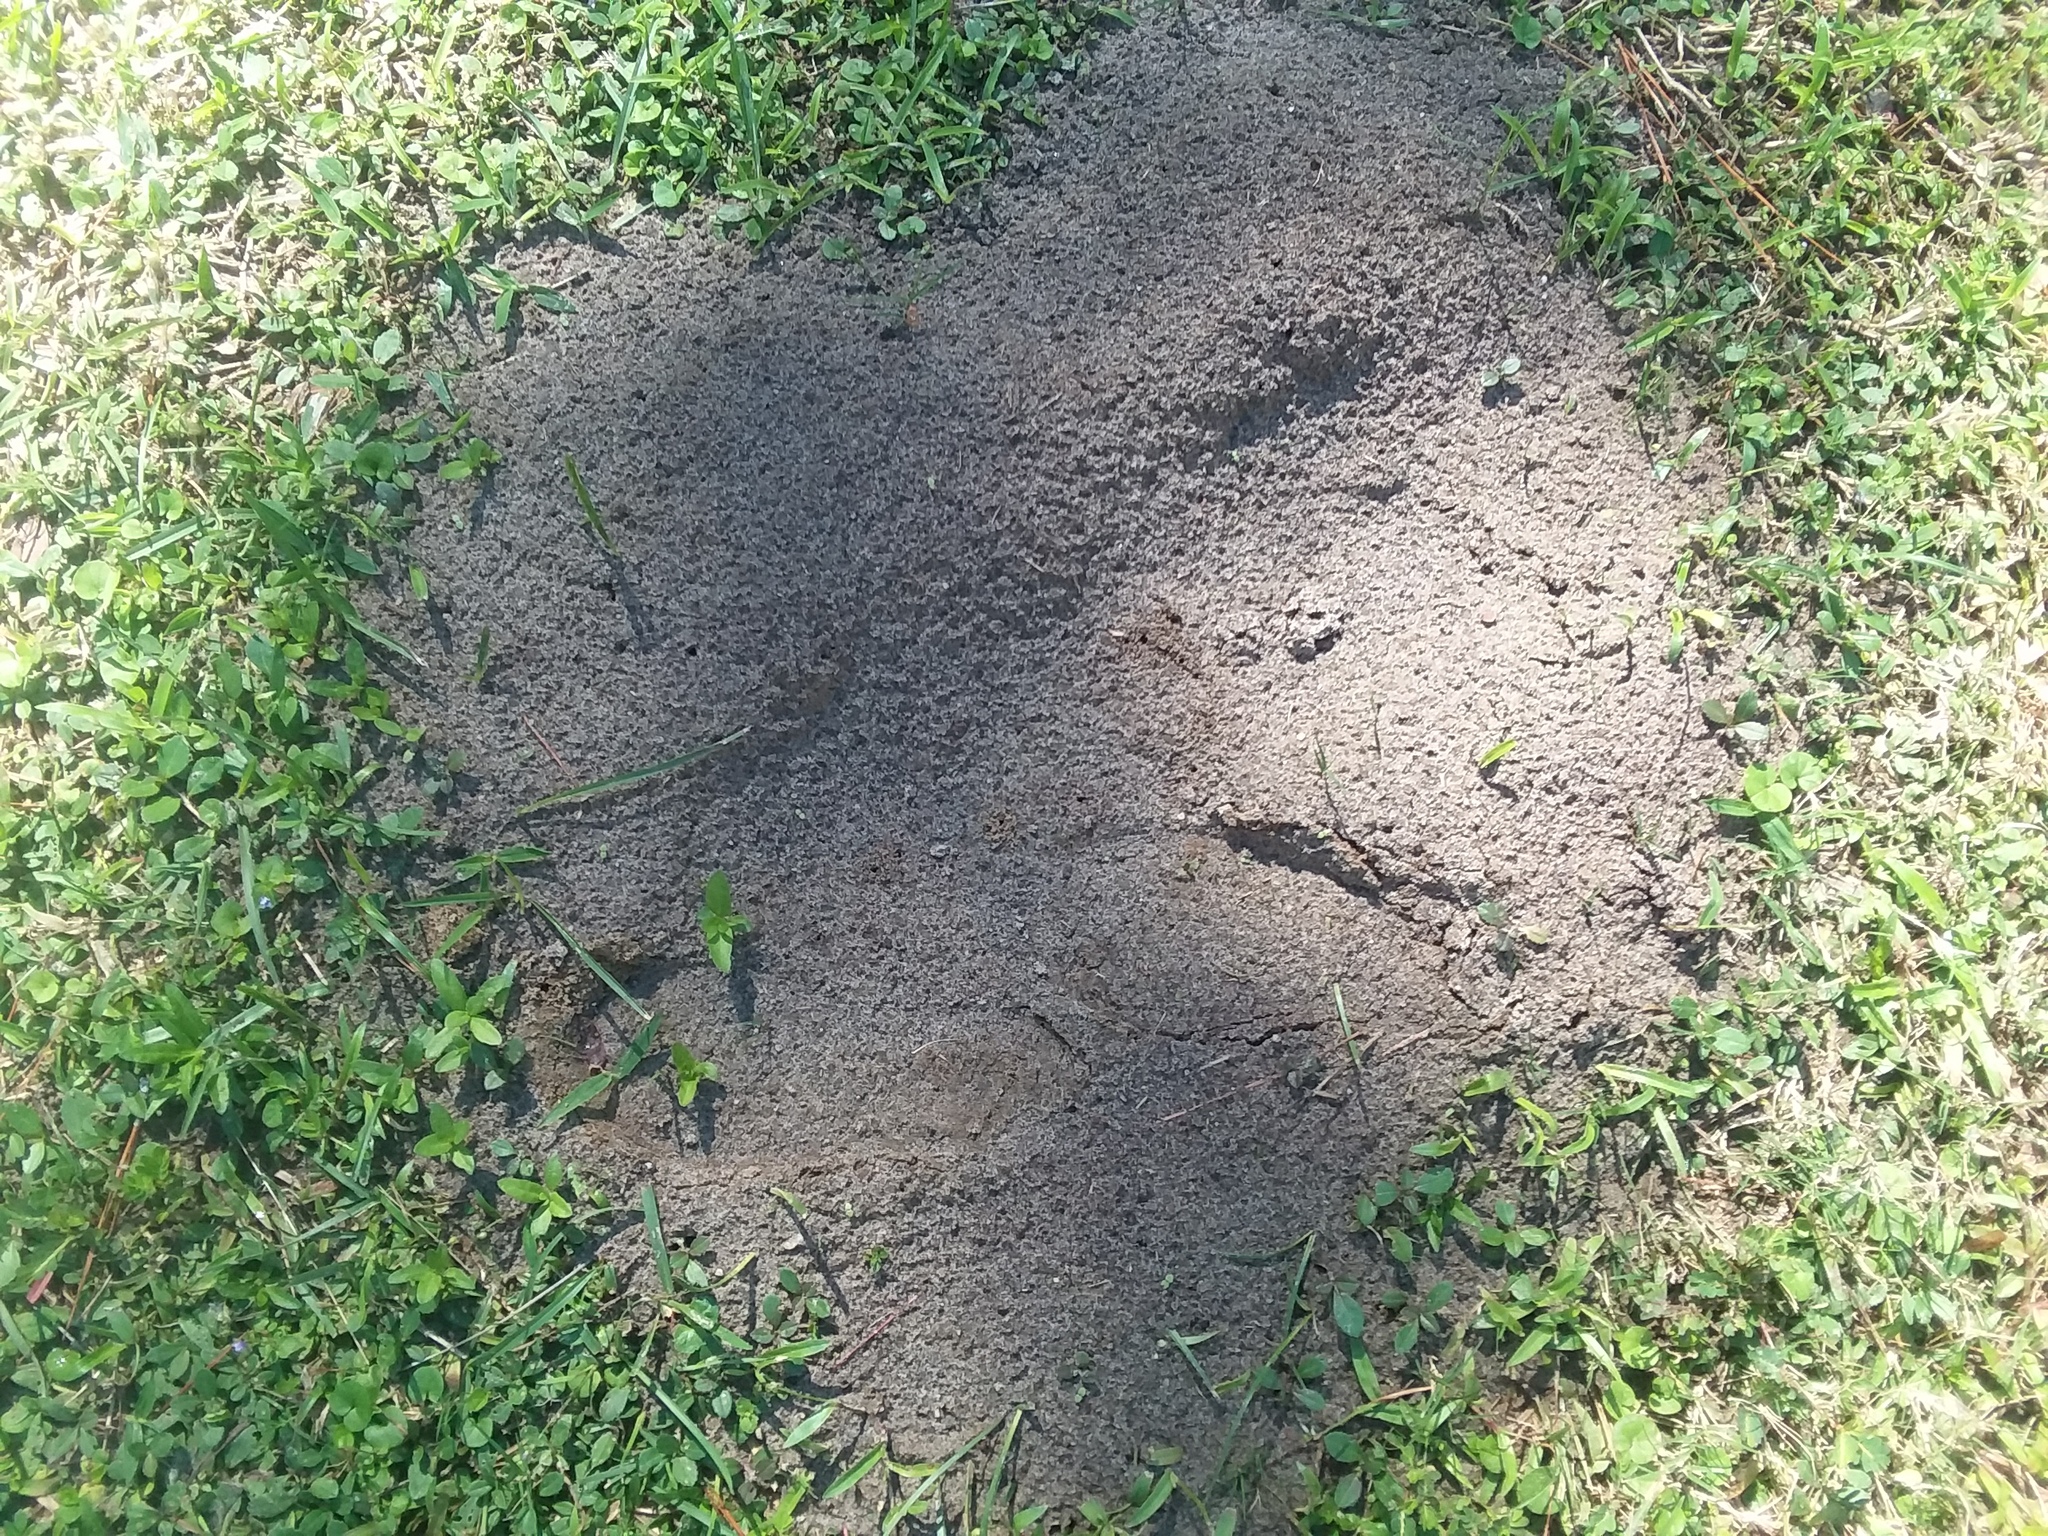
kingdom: Animalia
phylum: Arthropoda
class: Insecta
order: Hymenoptera
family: Formicidae
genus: Solenopsis
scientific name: Solenopsis invicta
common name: Red imported fire ant
